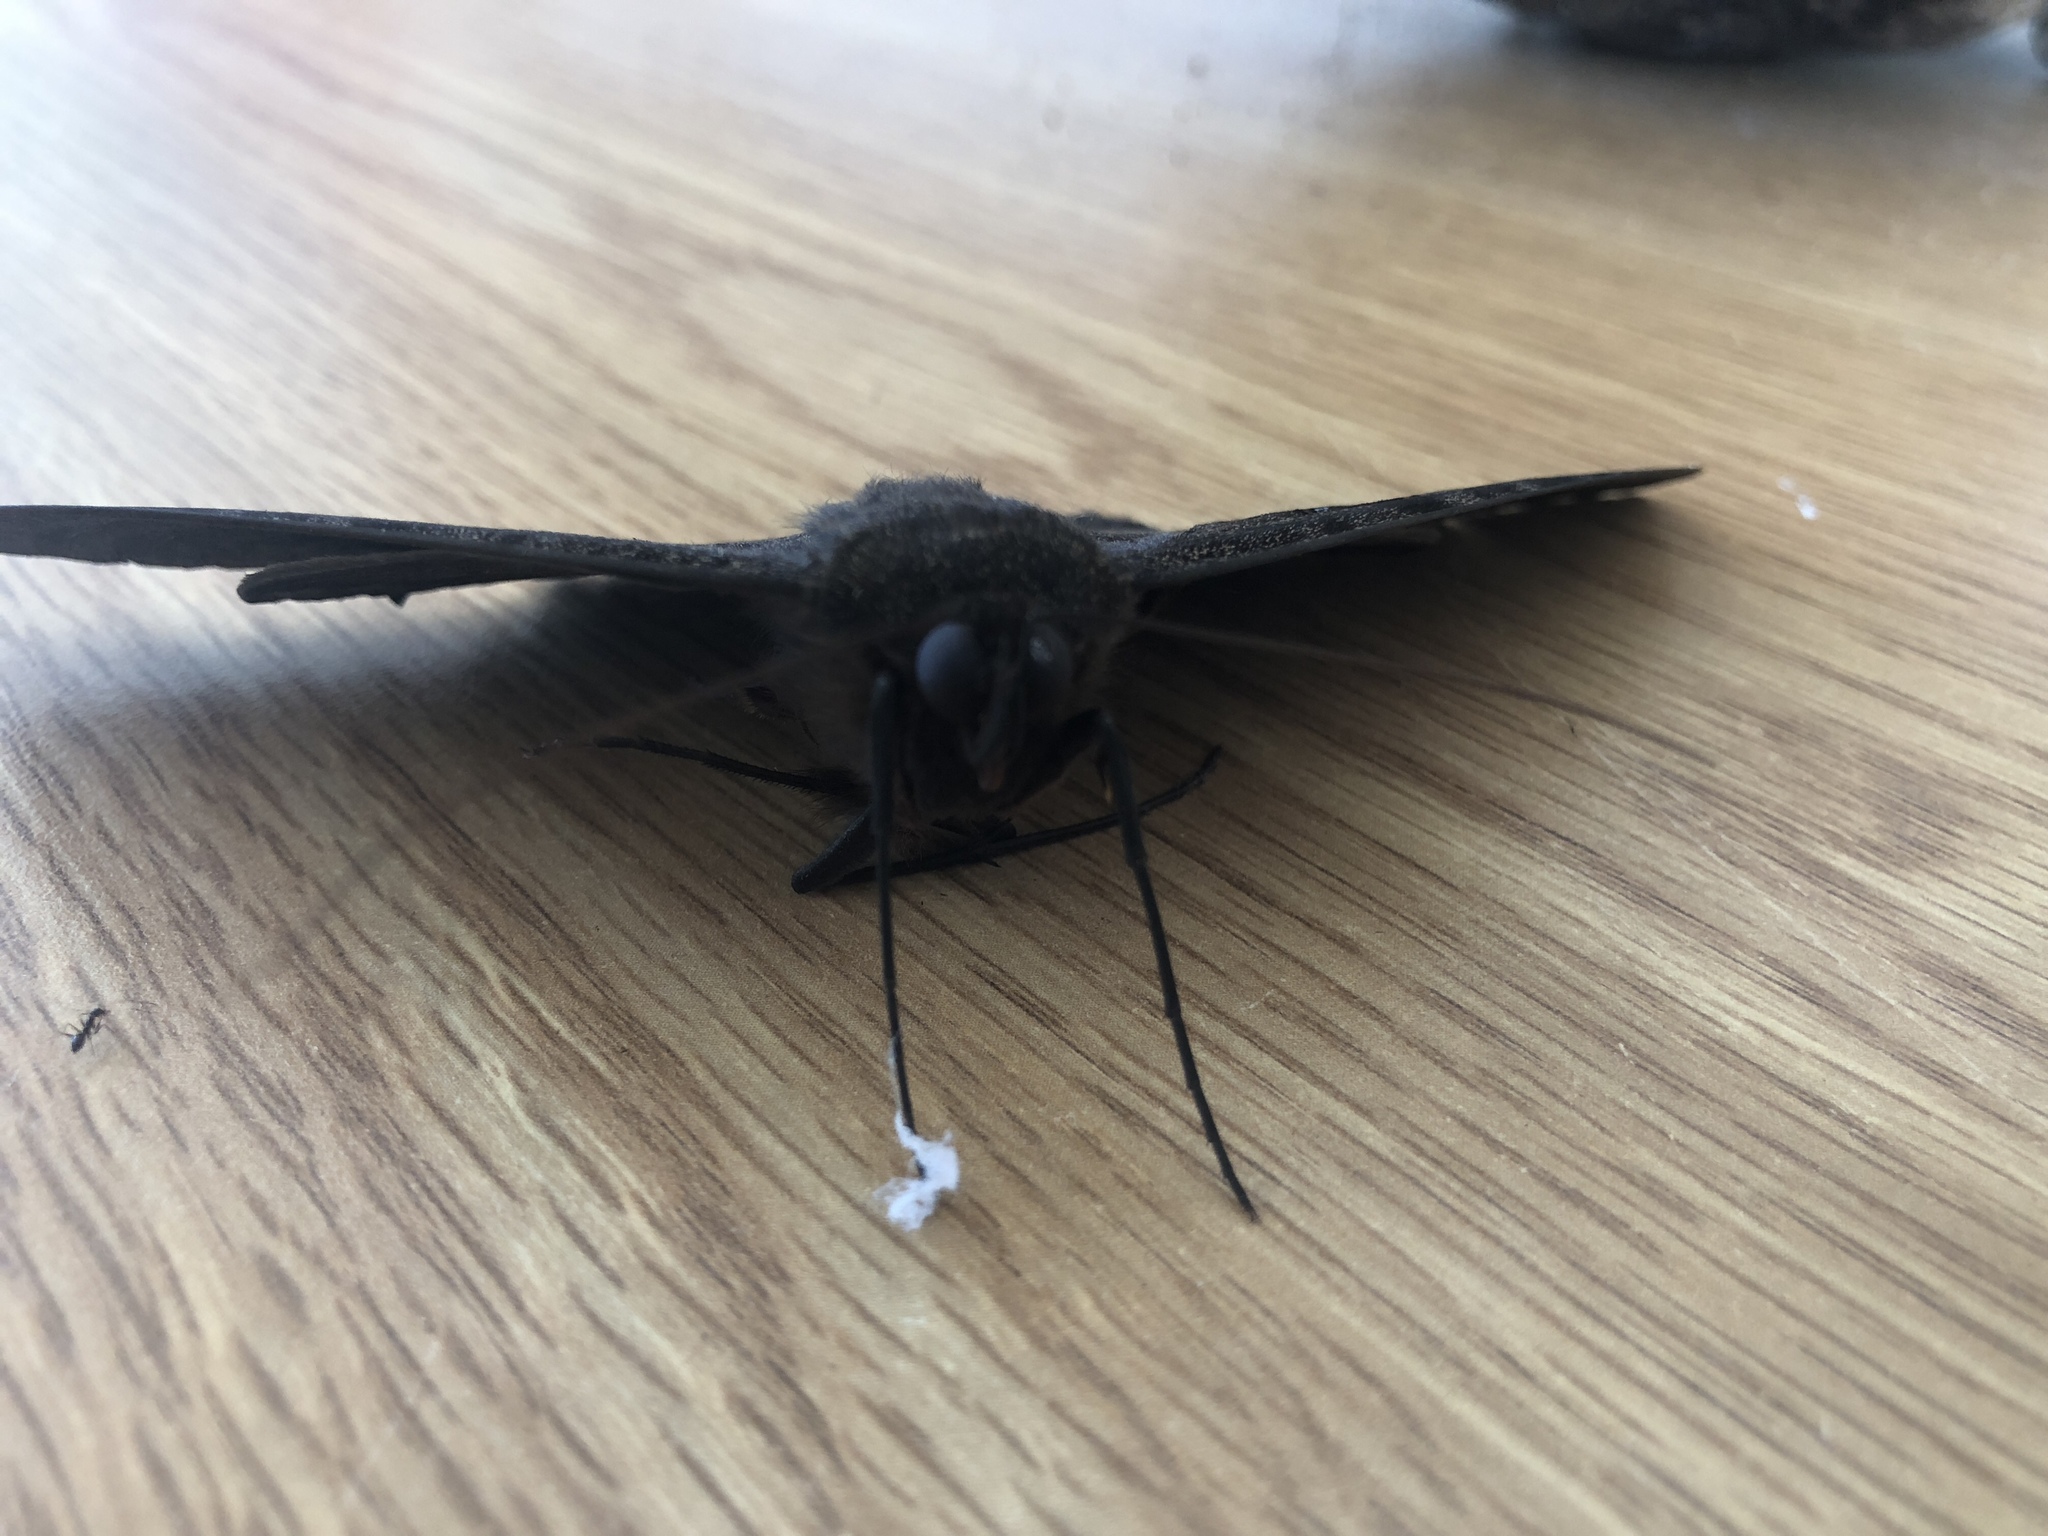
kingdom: Animalia
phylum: Arthropoda
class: Insecta
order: Lepidoptera
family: Erebidae
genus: Ascalapha
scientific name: Ascalapha odorata
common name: Black witch
